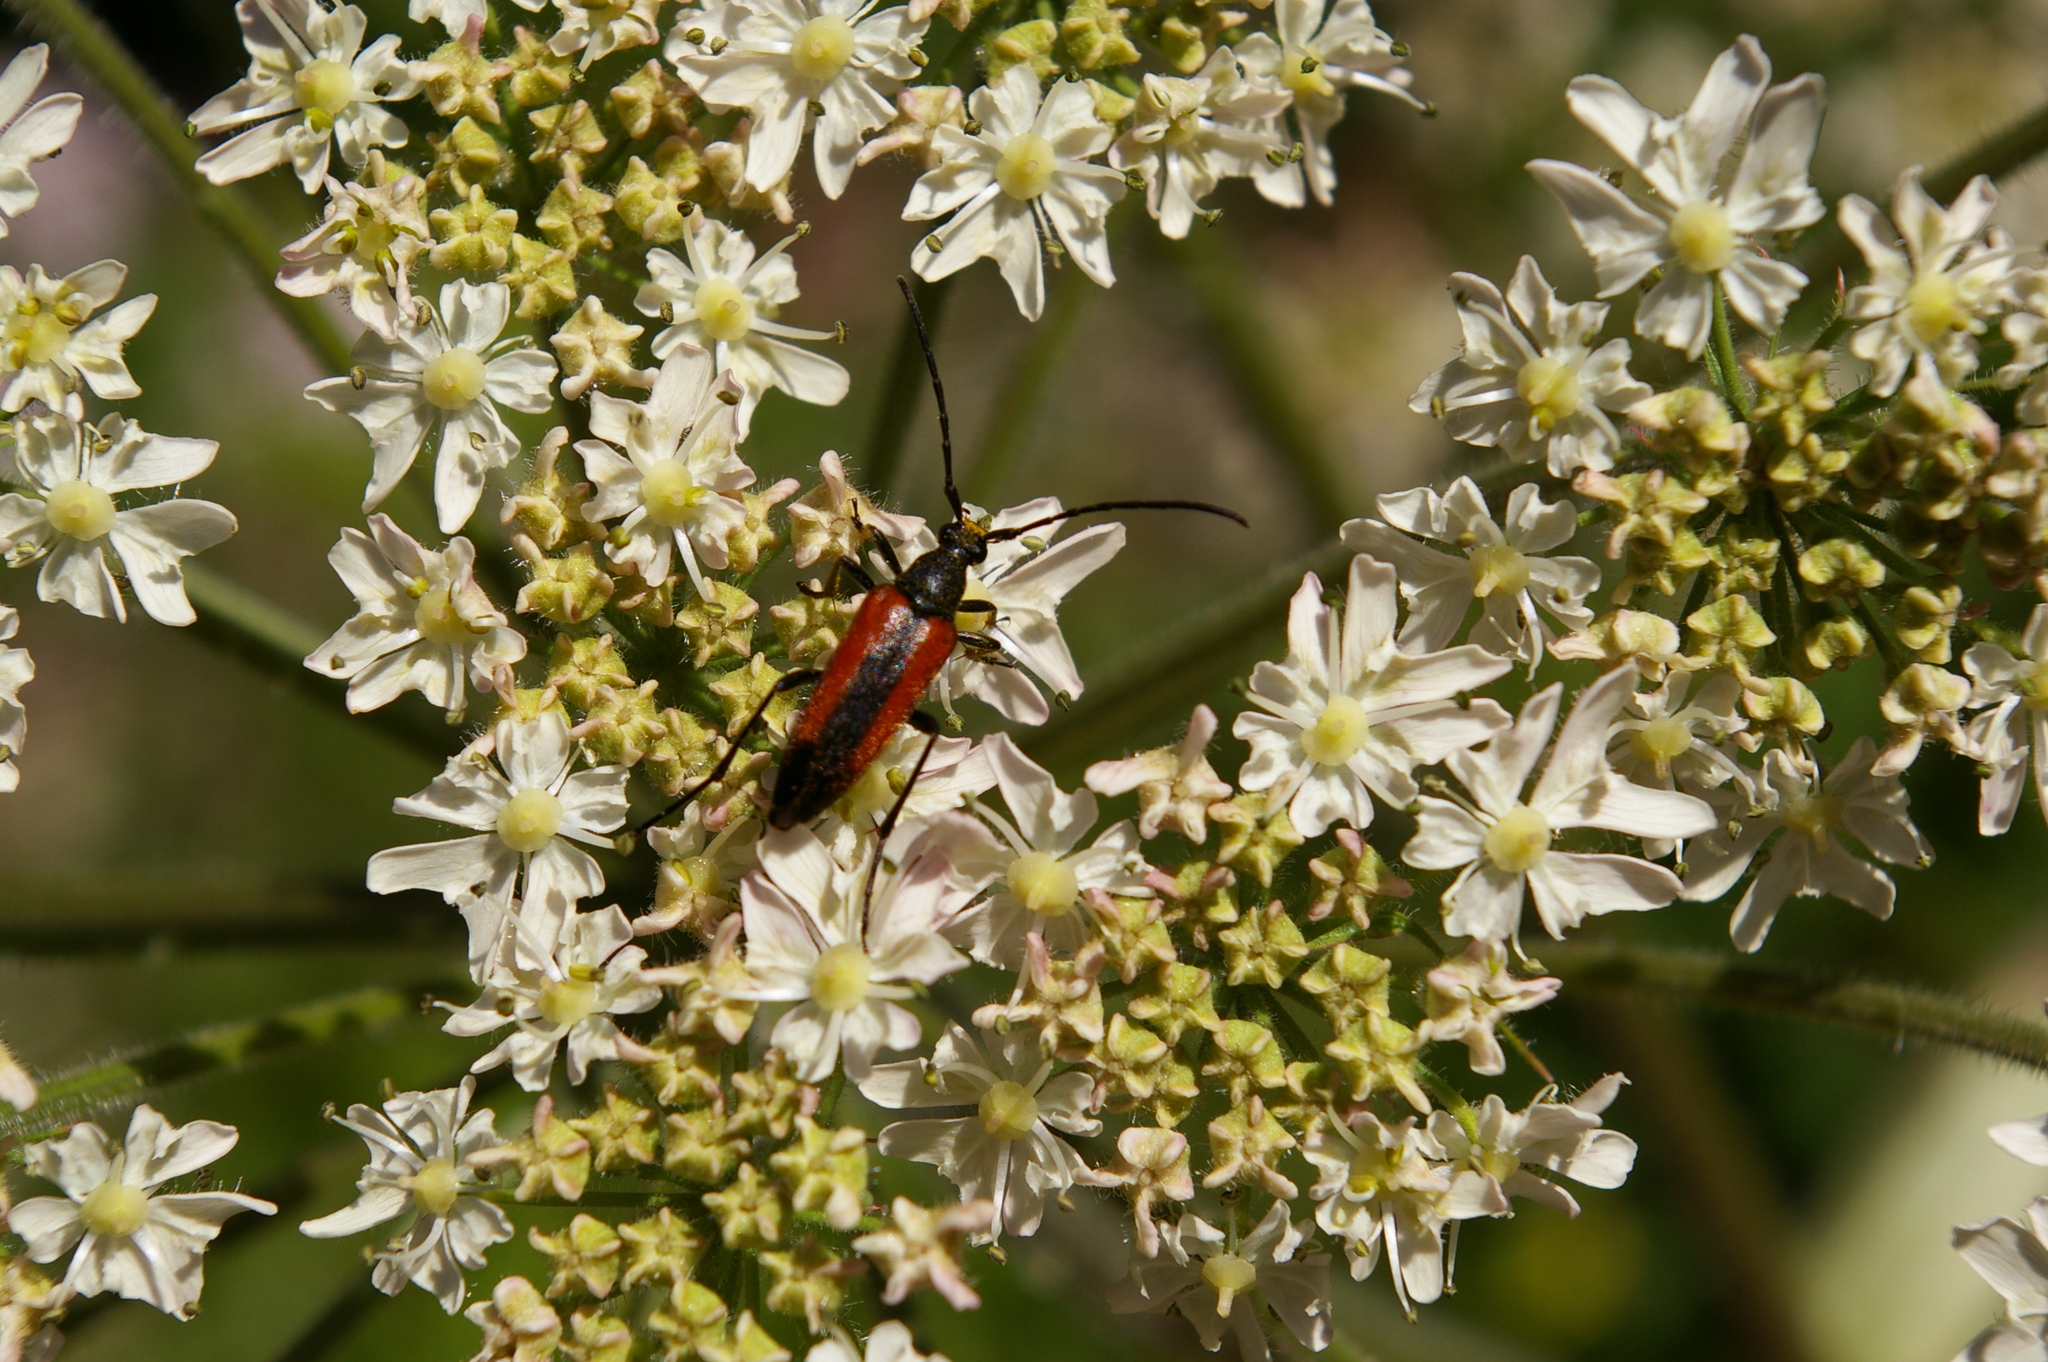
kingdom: Animalia
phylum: Arthropoda
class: Insecta
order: Coleoptera
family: Cerambycidae
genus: Stenurella
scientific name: Stenurella melanura
